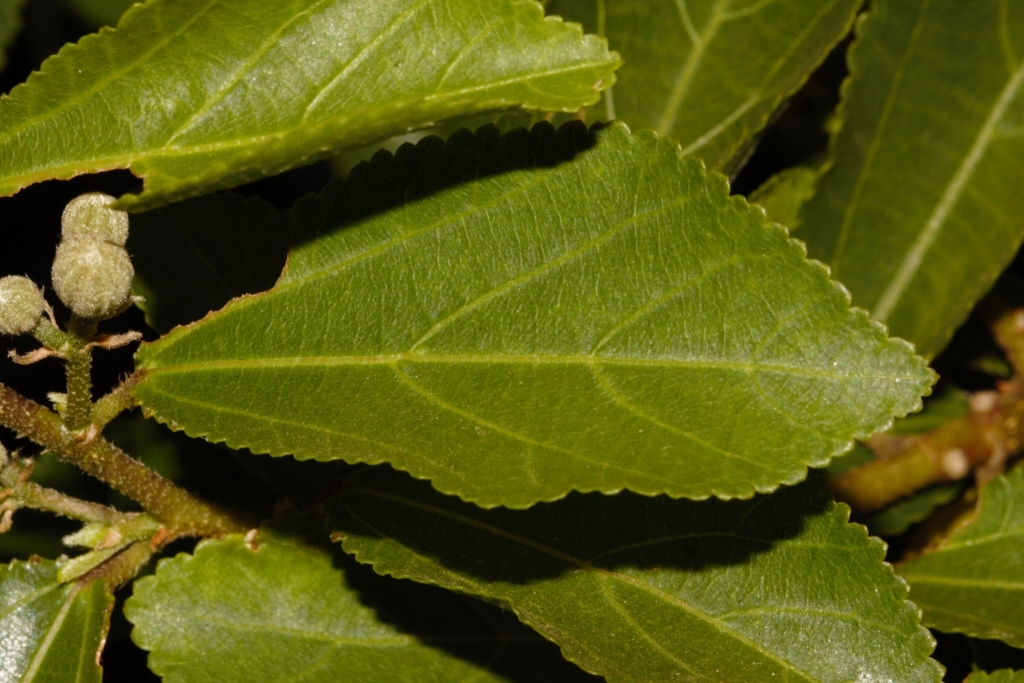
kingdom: Plantae
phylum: Tracheophyta
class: Magnoliopsida
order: Malvales
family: Malvaceae
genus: Grewia
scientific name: Grewia occidentalis
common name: Crossberry
